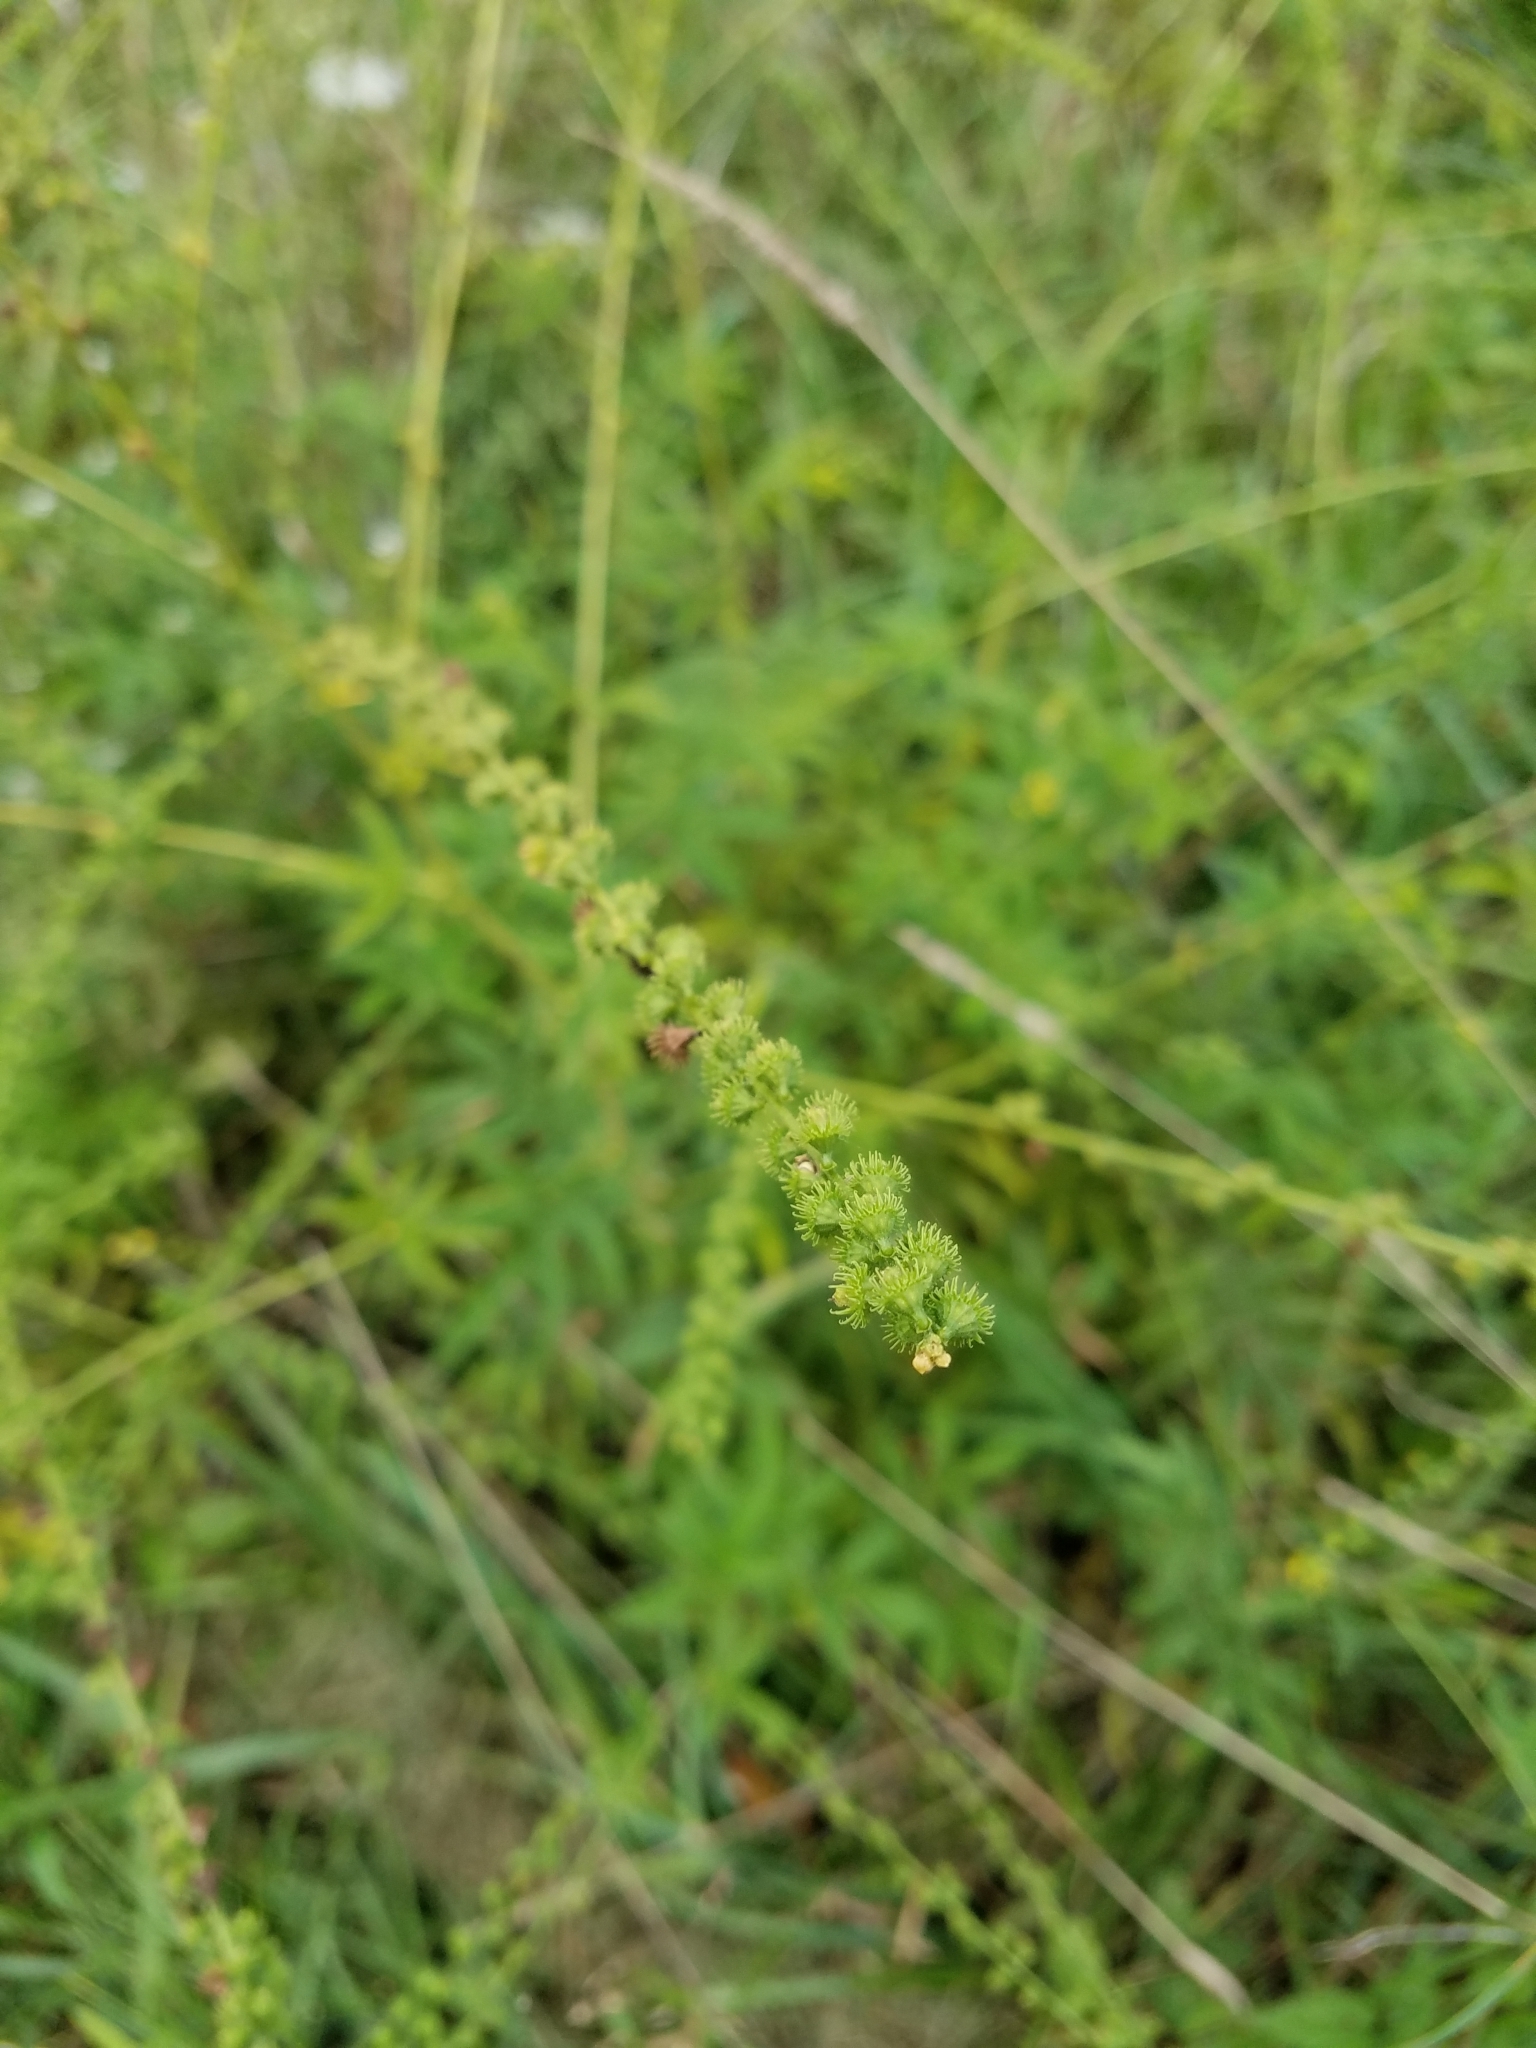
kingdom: Plantae
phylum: Tracheophyta
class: Magnoliopsida
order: Rosales
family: Rosaceae
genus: Agrimonia
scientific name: Agrimonia parviflora
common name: Harvest-lice
